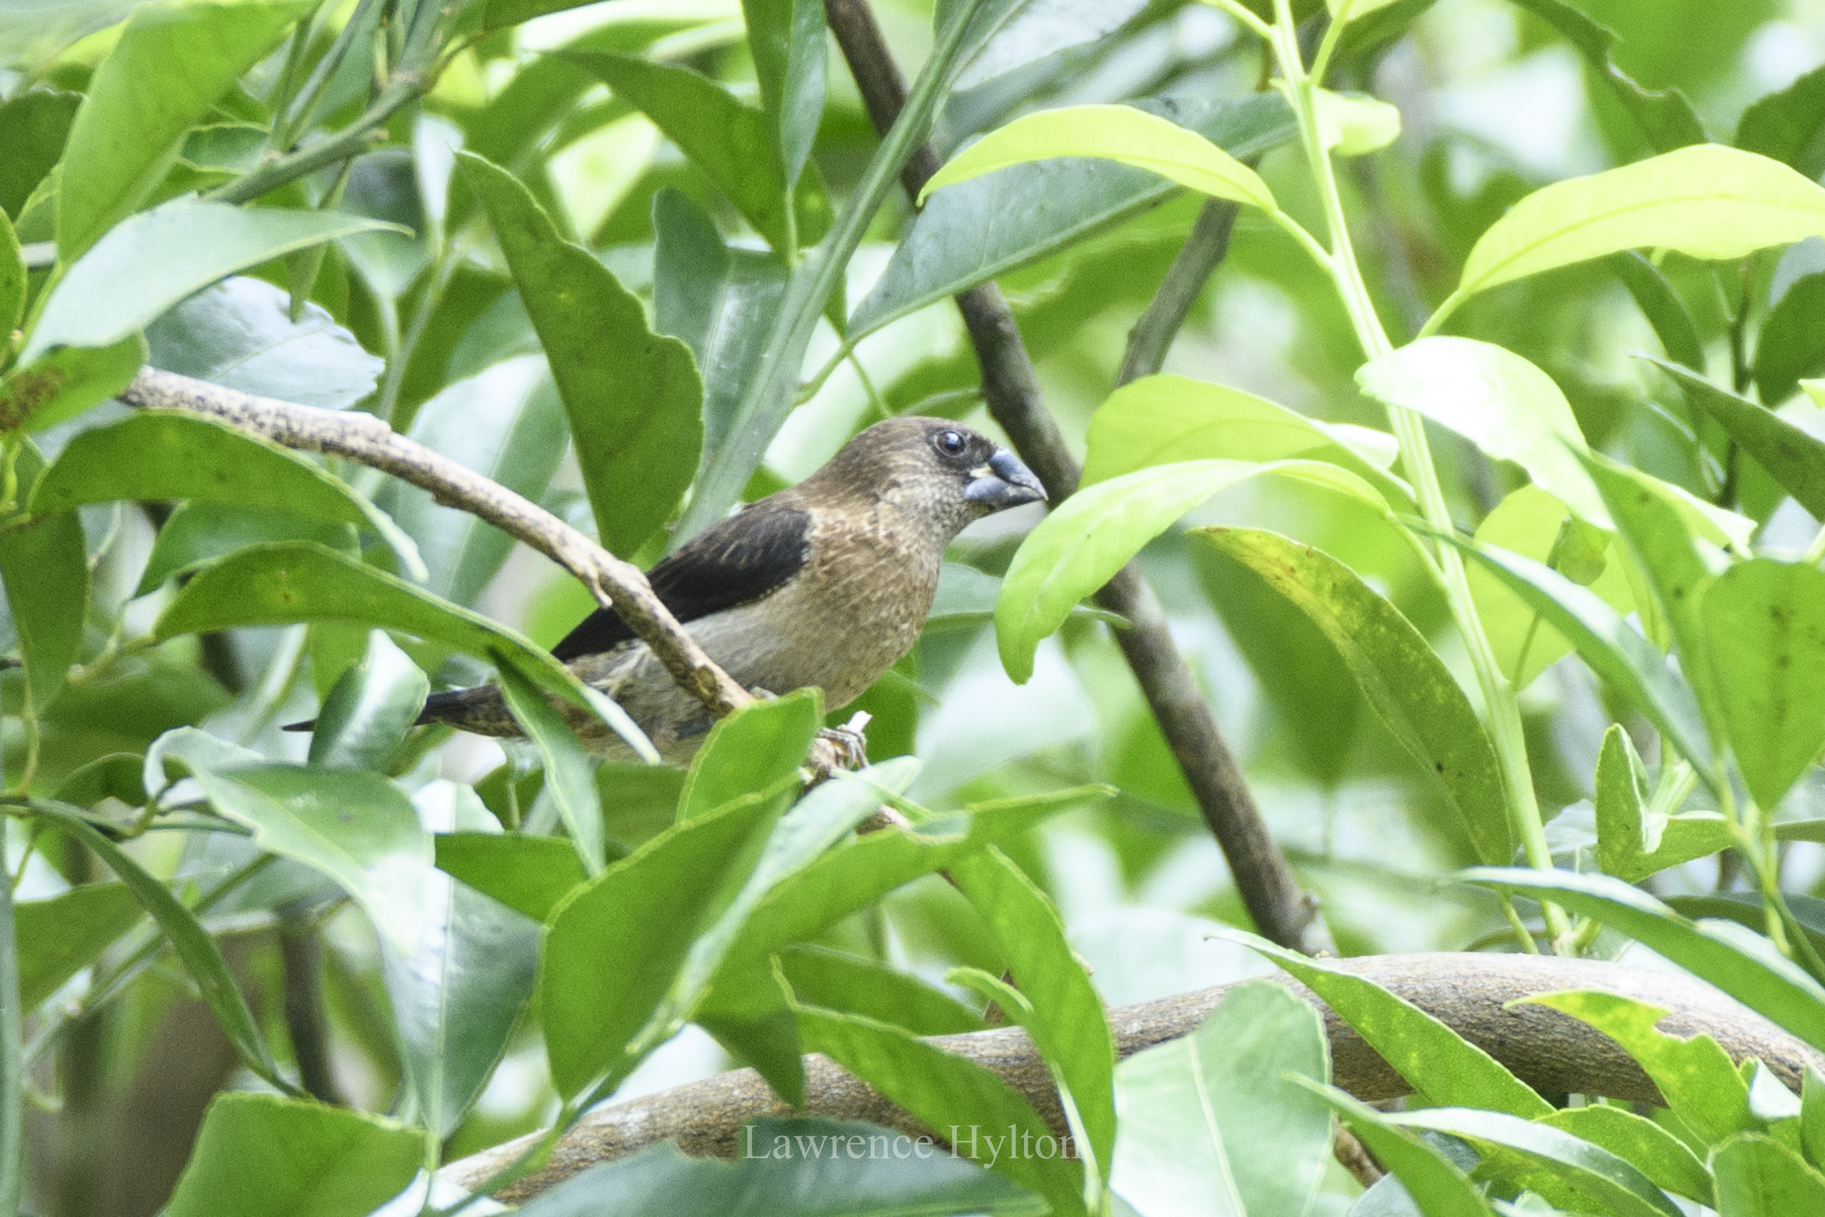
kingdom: Animalia
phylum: Chordata
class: Aves
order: Passeriformes
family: Estrildidae
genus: Lonchura
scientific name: Lonchura striata
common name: White-rumped munia
